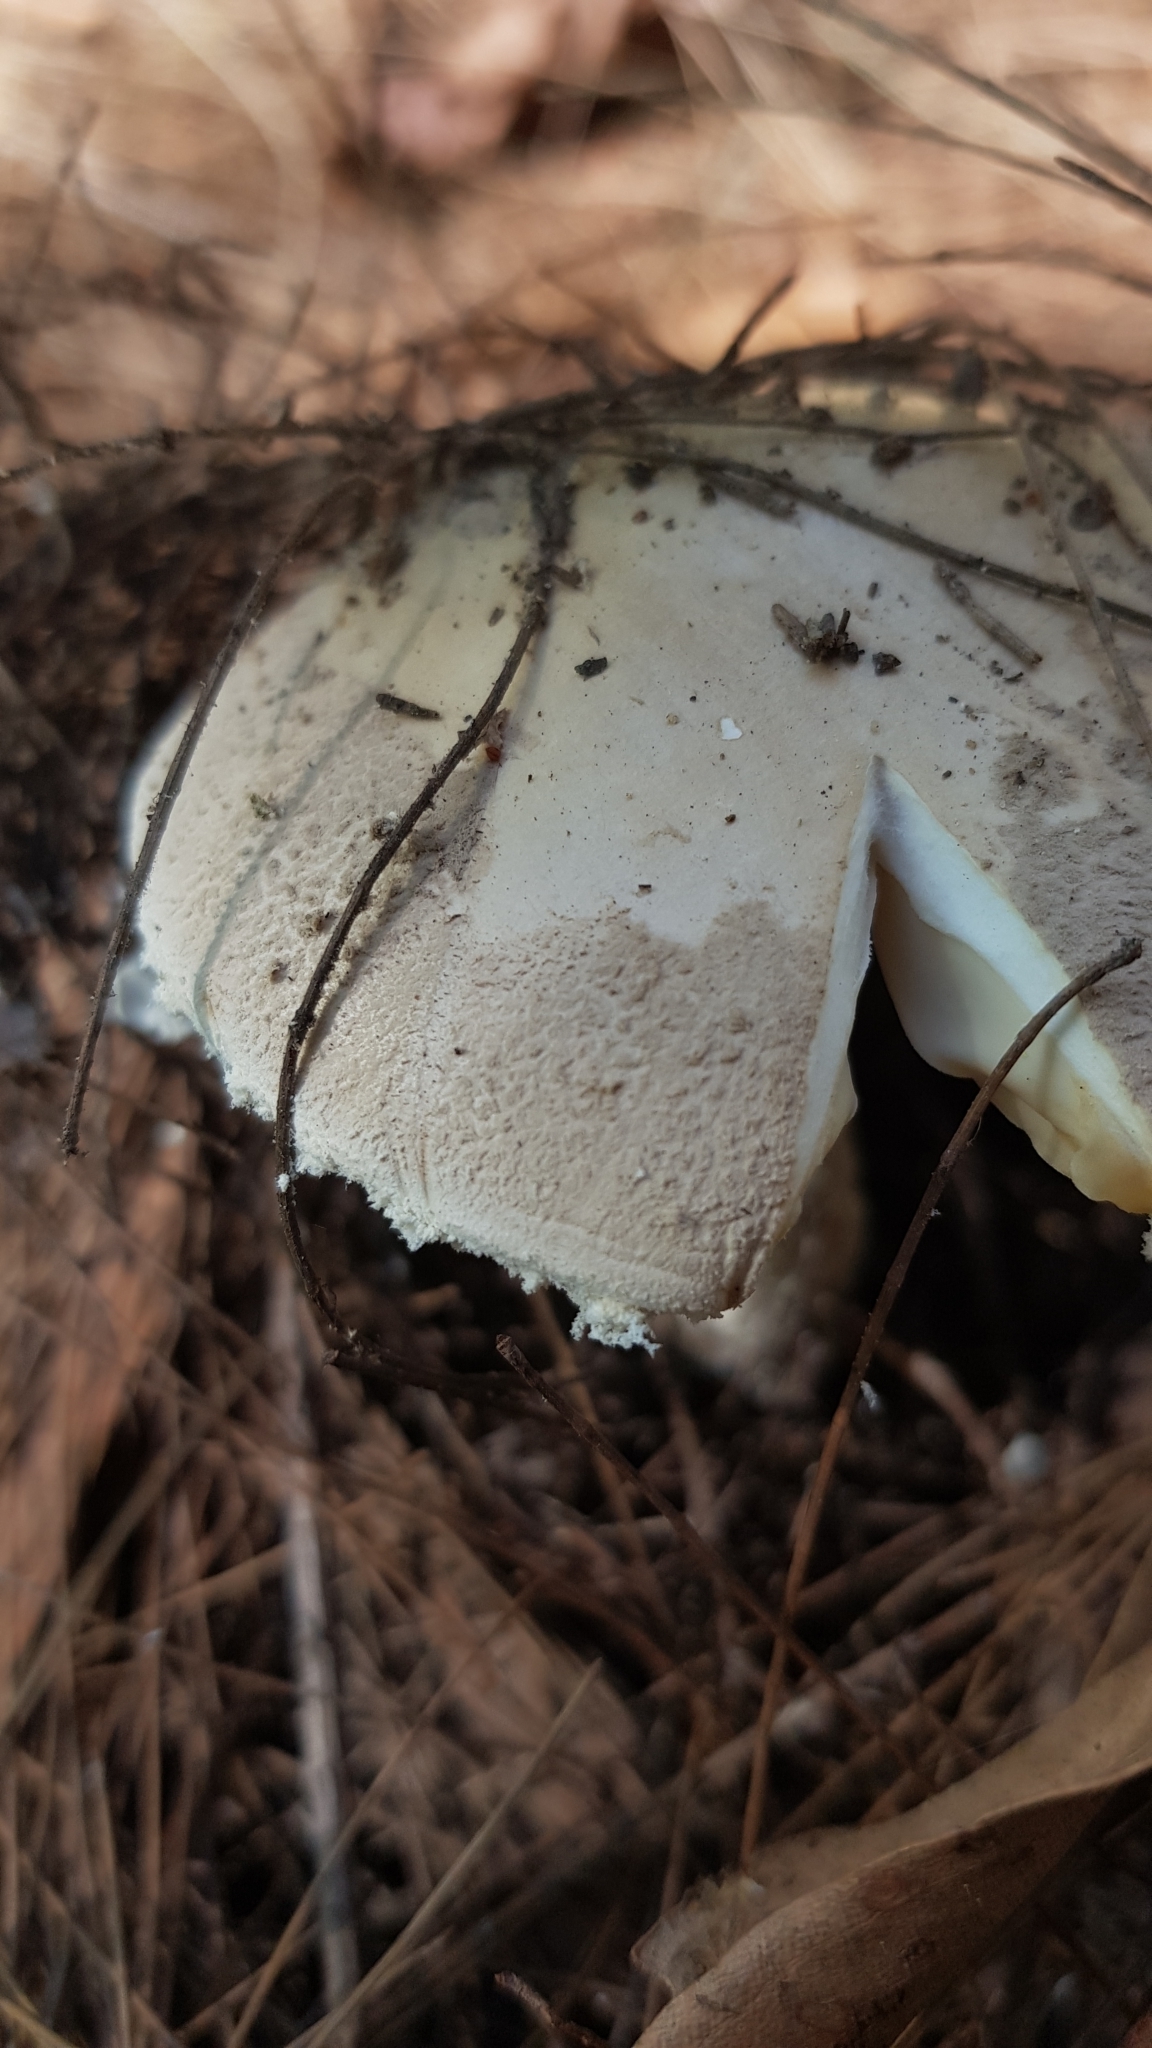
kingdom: Fungi
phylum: Basidiomycota
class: Agaricomycetes
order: Agaricales
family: Amanitaceae
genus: Amanita
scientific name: Amanita farinacea
